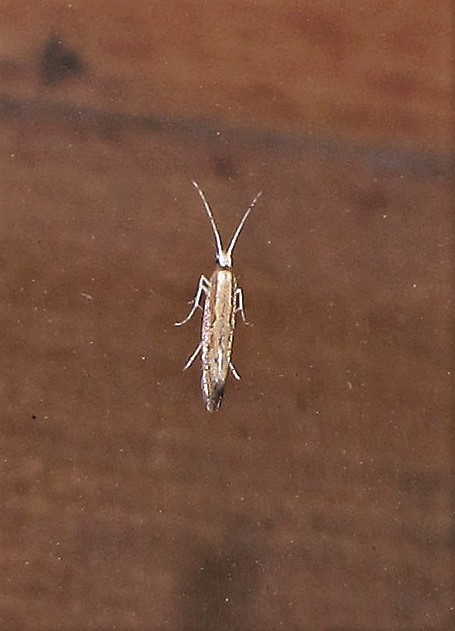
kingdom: Animalia
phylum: Arthropoda
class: Insecta
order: Lepidoptera
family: Plutellidae
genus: Plutella
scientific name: Plutella xylostella
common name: Diamond-back moth
